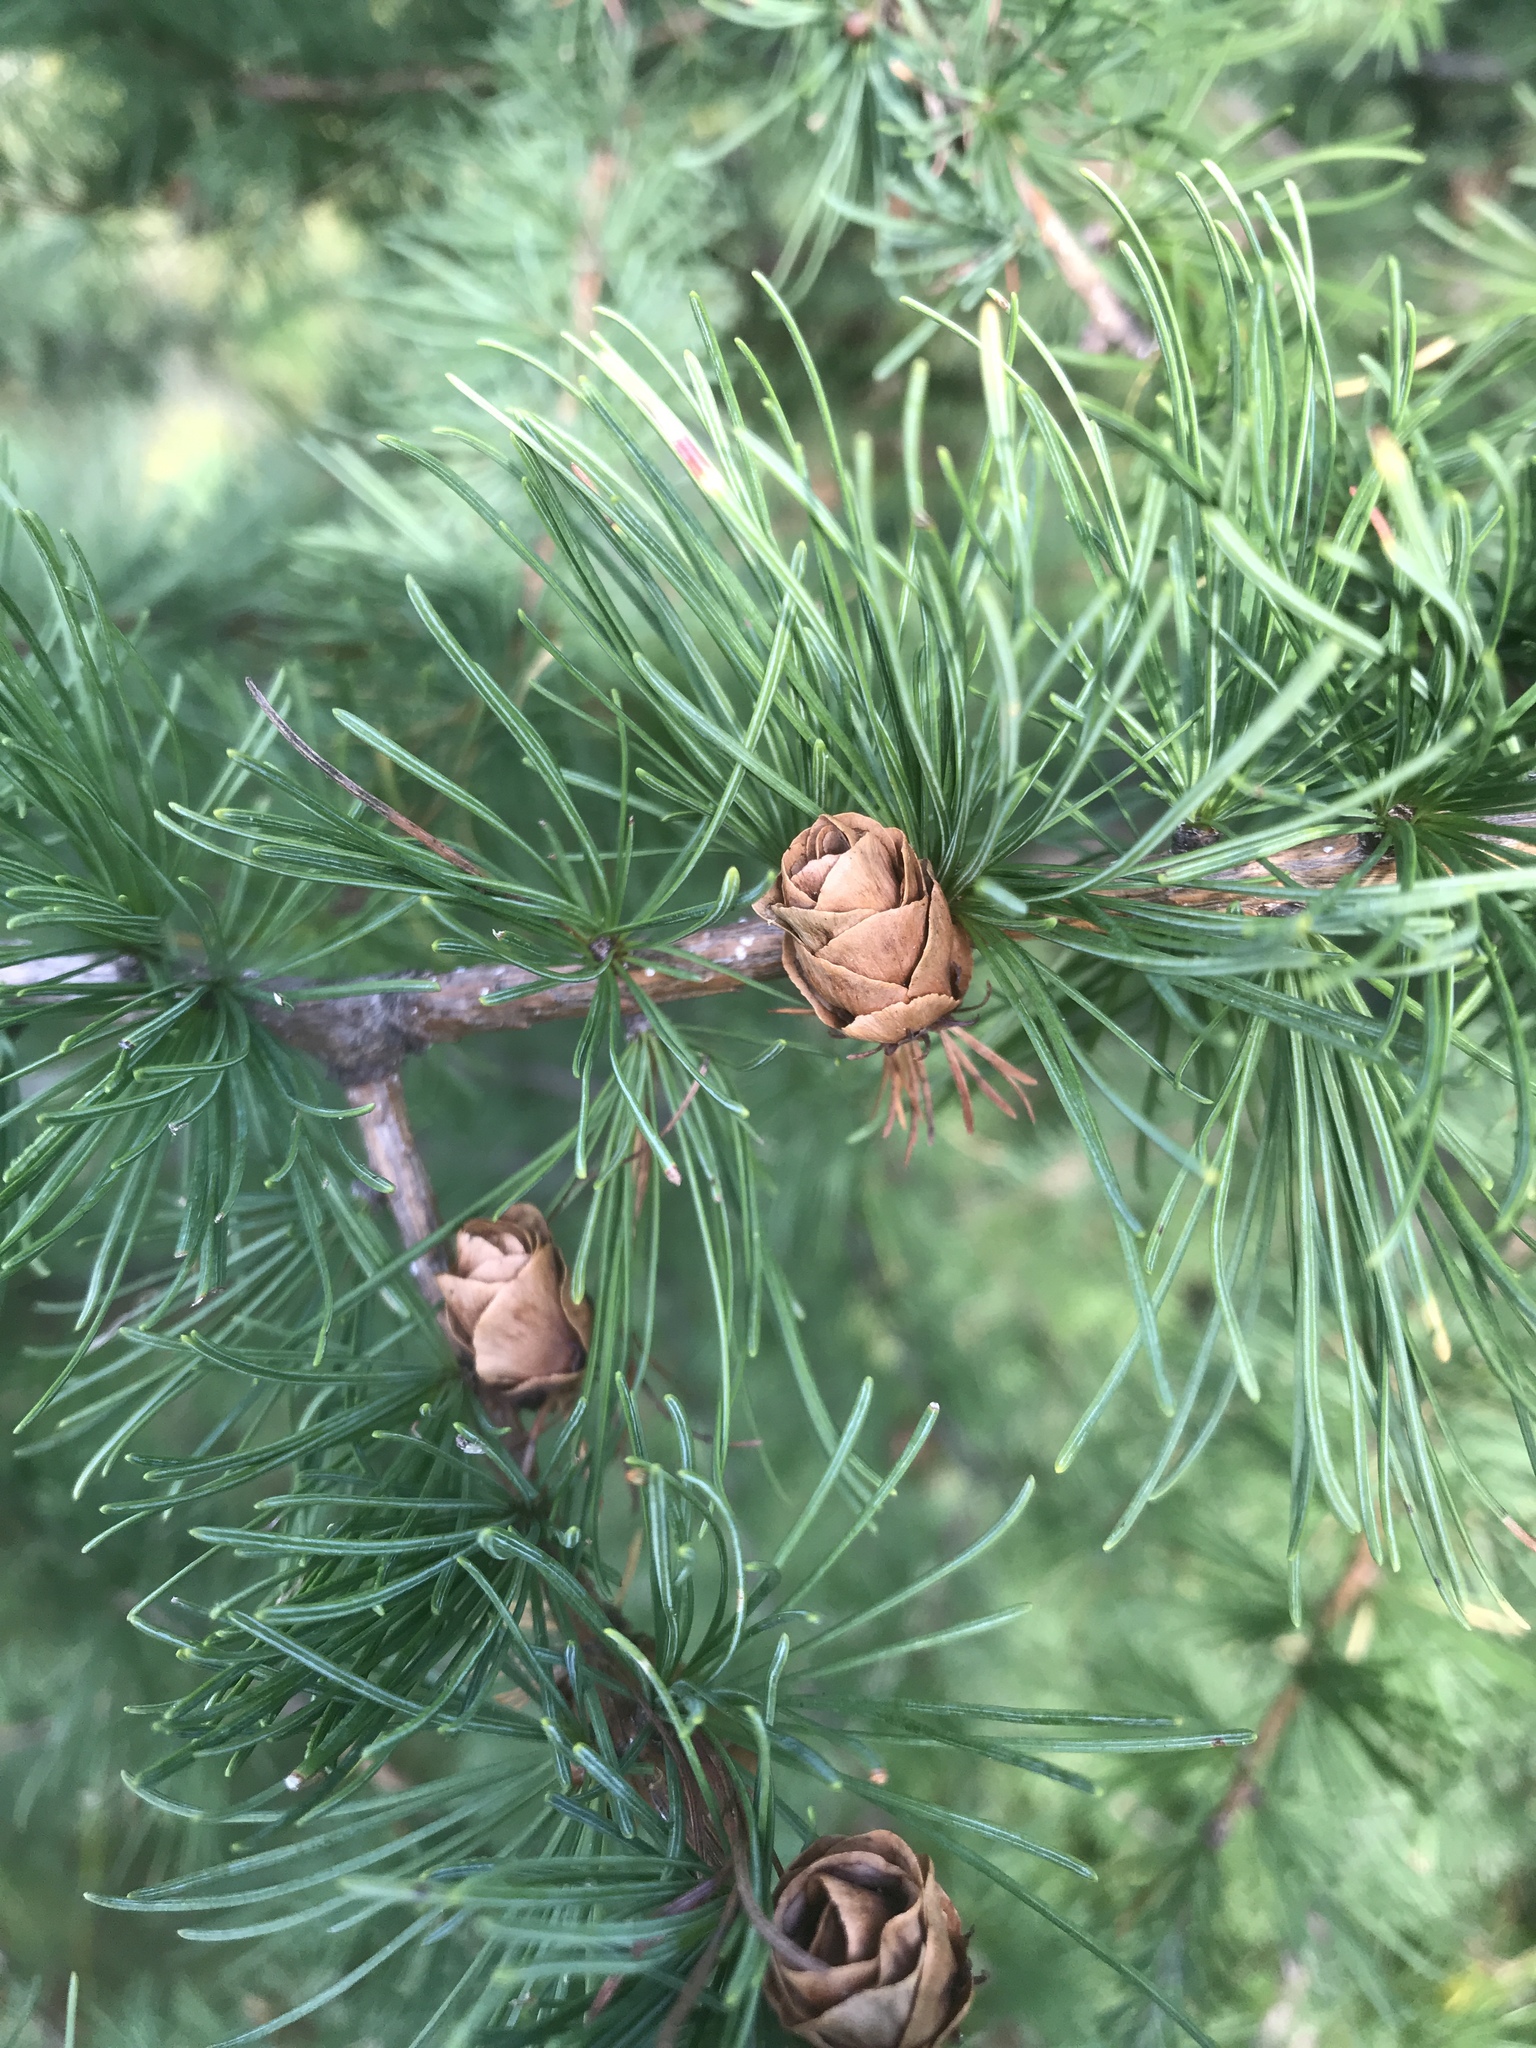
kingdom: Plantae
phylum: Tracheophyta
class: Pinopsida
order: Pinales
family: Pinaceae
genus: Larix
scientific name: Larix laricina
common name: American larch
